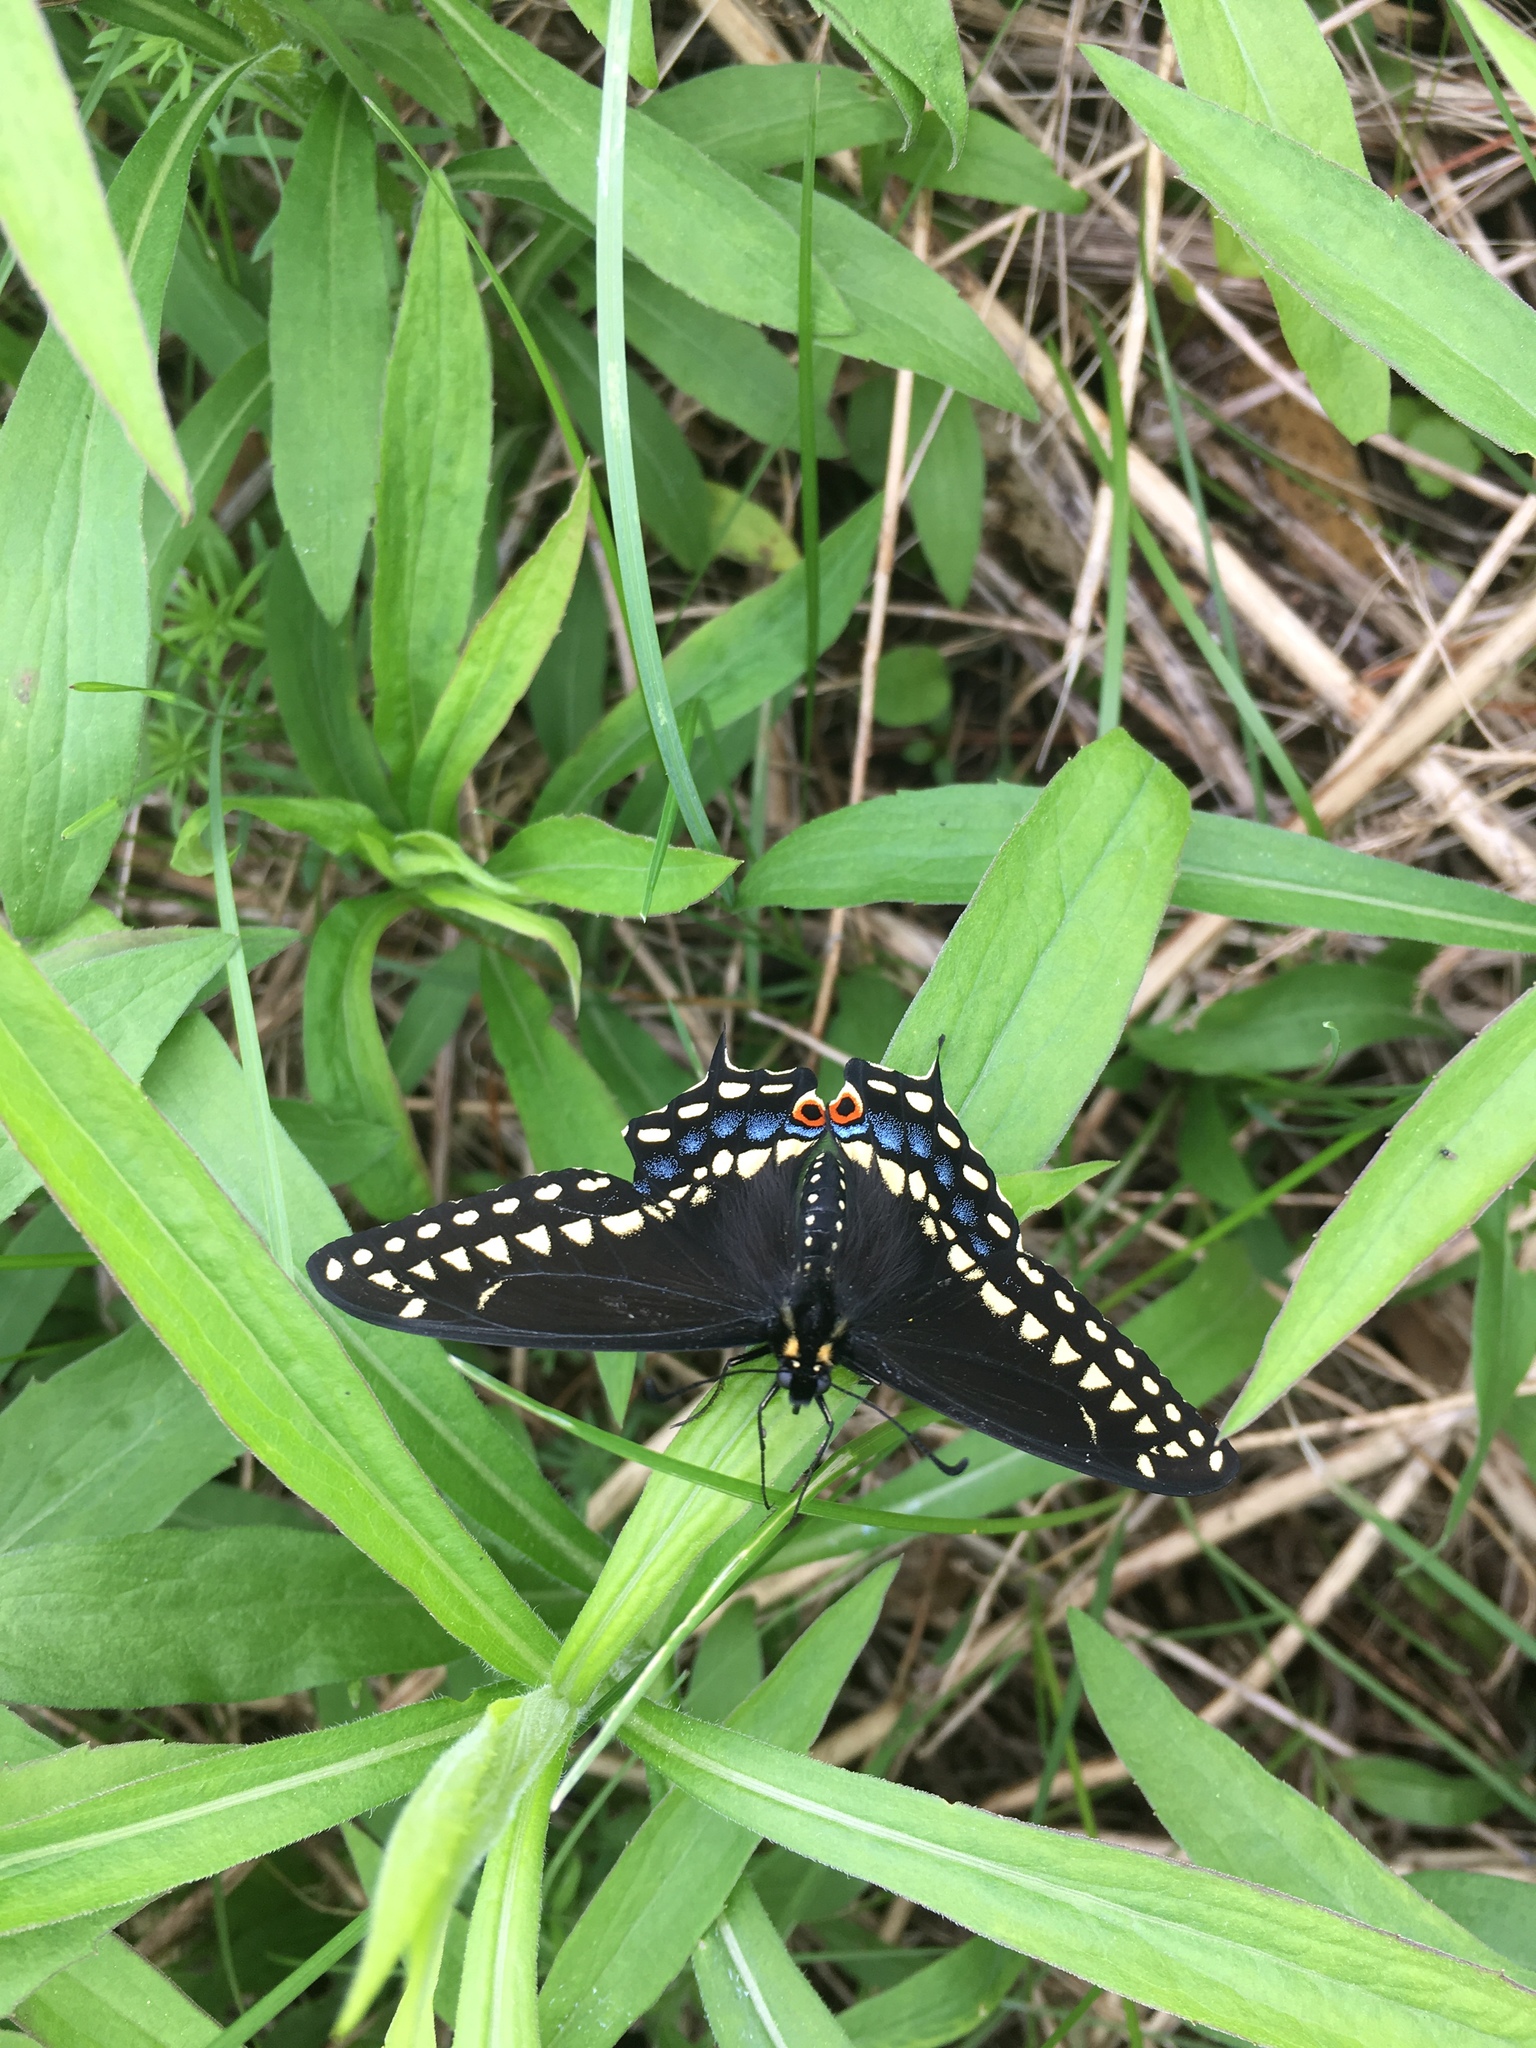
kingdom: Animalia
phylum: Arthropoda
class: Insecta
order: Lepidoptera
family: Papilionidae
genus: Papilio
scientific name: Papilio polyxenes
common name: Black swallowtail
